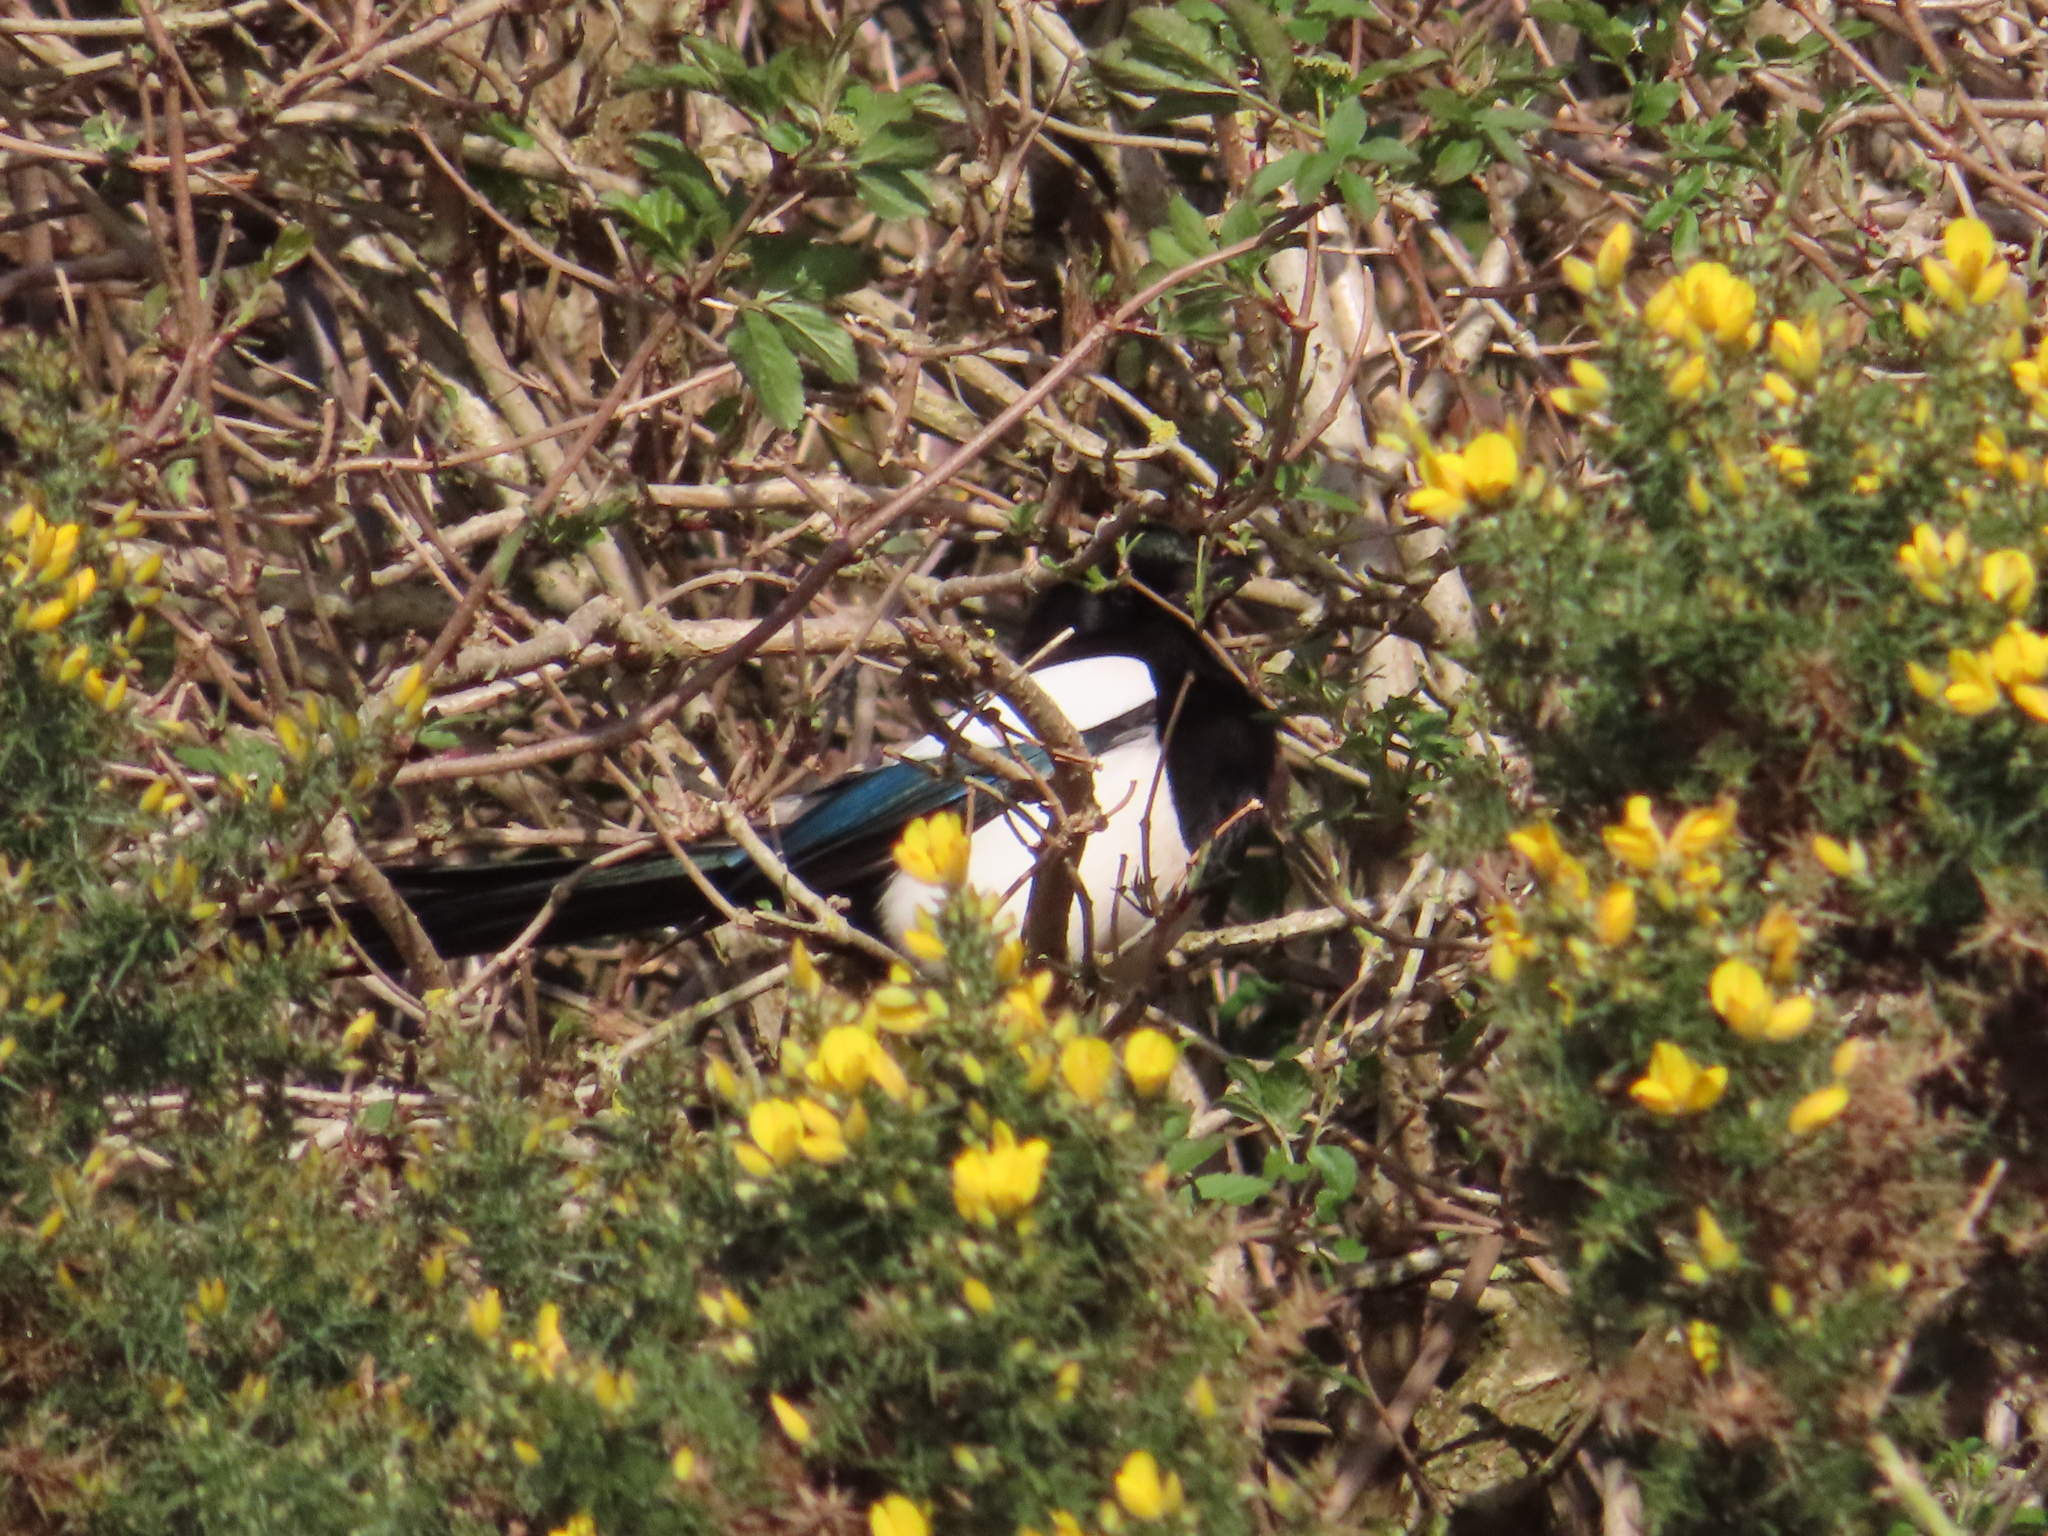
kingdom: Animalia
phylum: Chordata
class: Aves
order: Passeriformes
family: Corvidae
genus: Pica
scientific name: Pica pica
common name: Eurasian magpie
